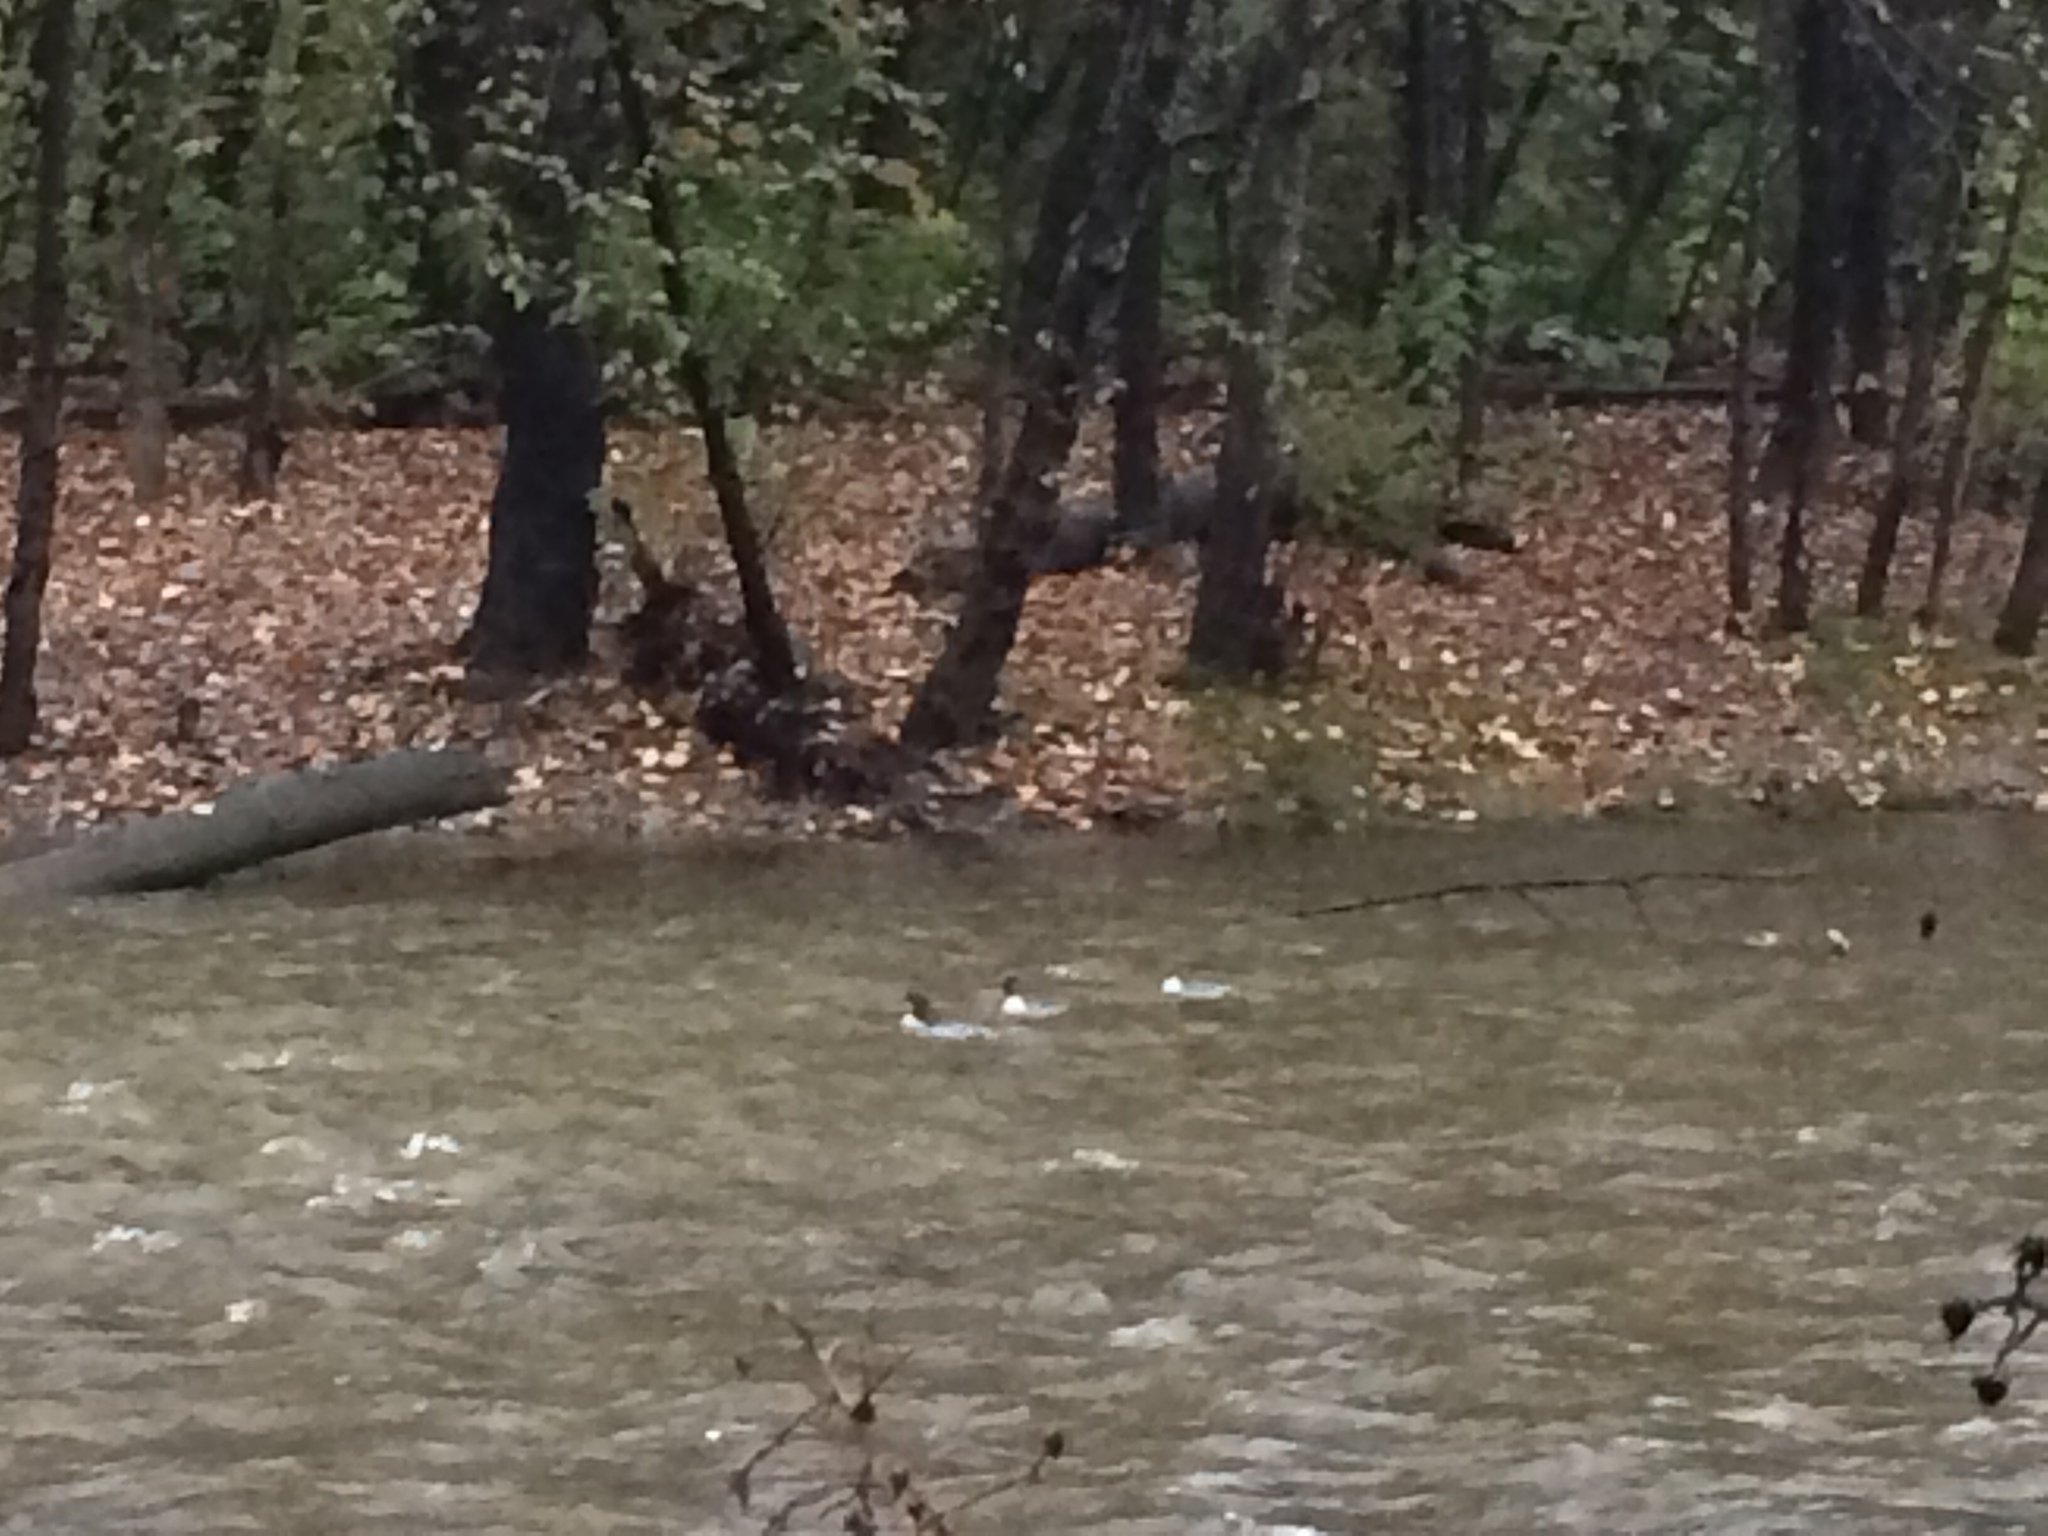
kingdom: Animalia
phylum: Chordata
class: Aves
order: Anseriformes
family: Anatidae
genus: Mergus
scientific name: Mergus merganser
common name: Common merganser
